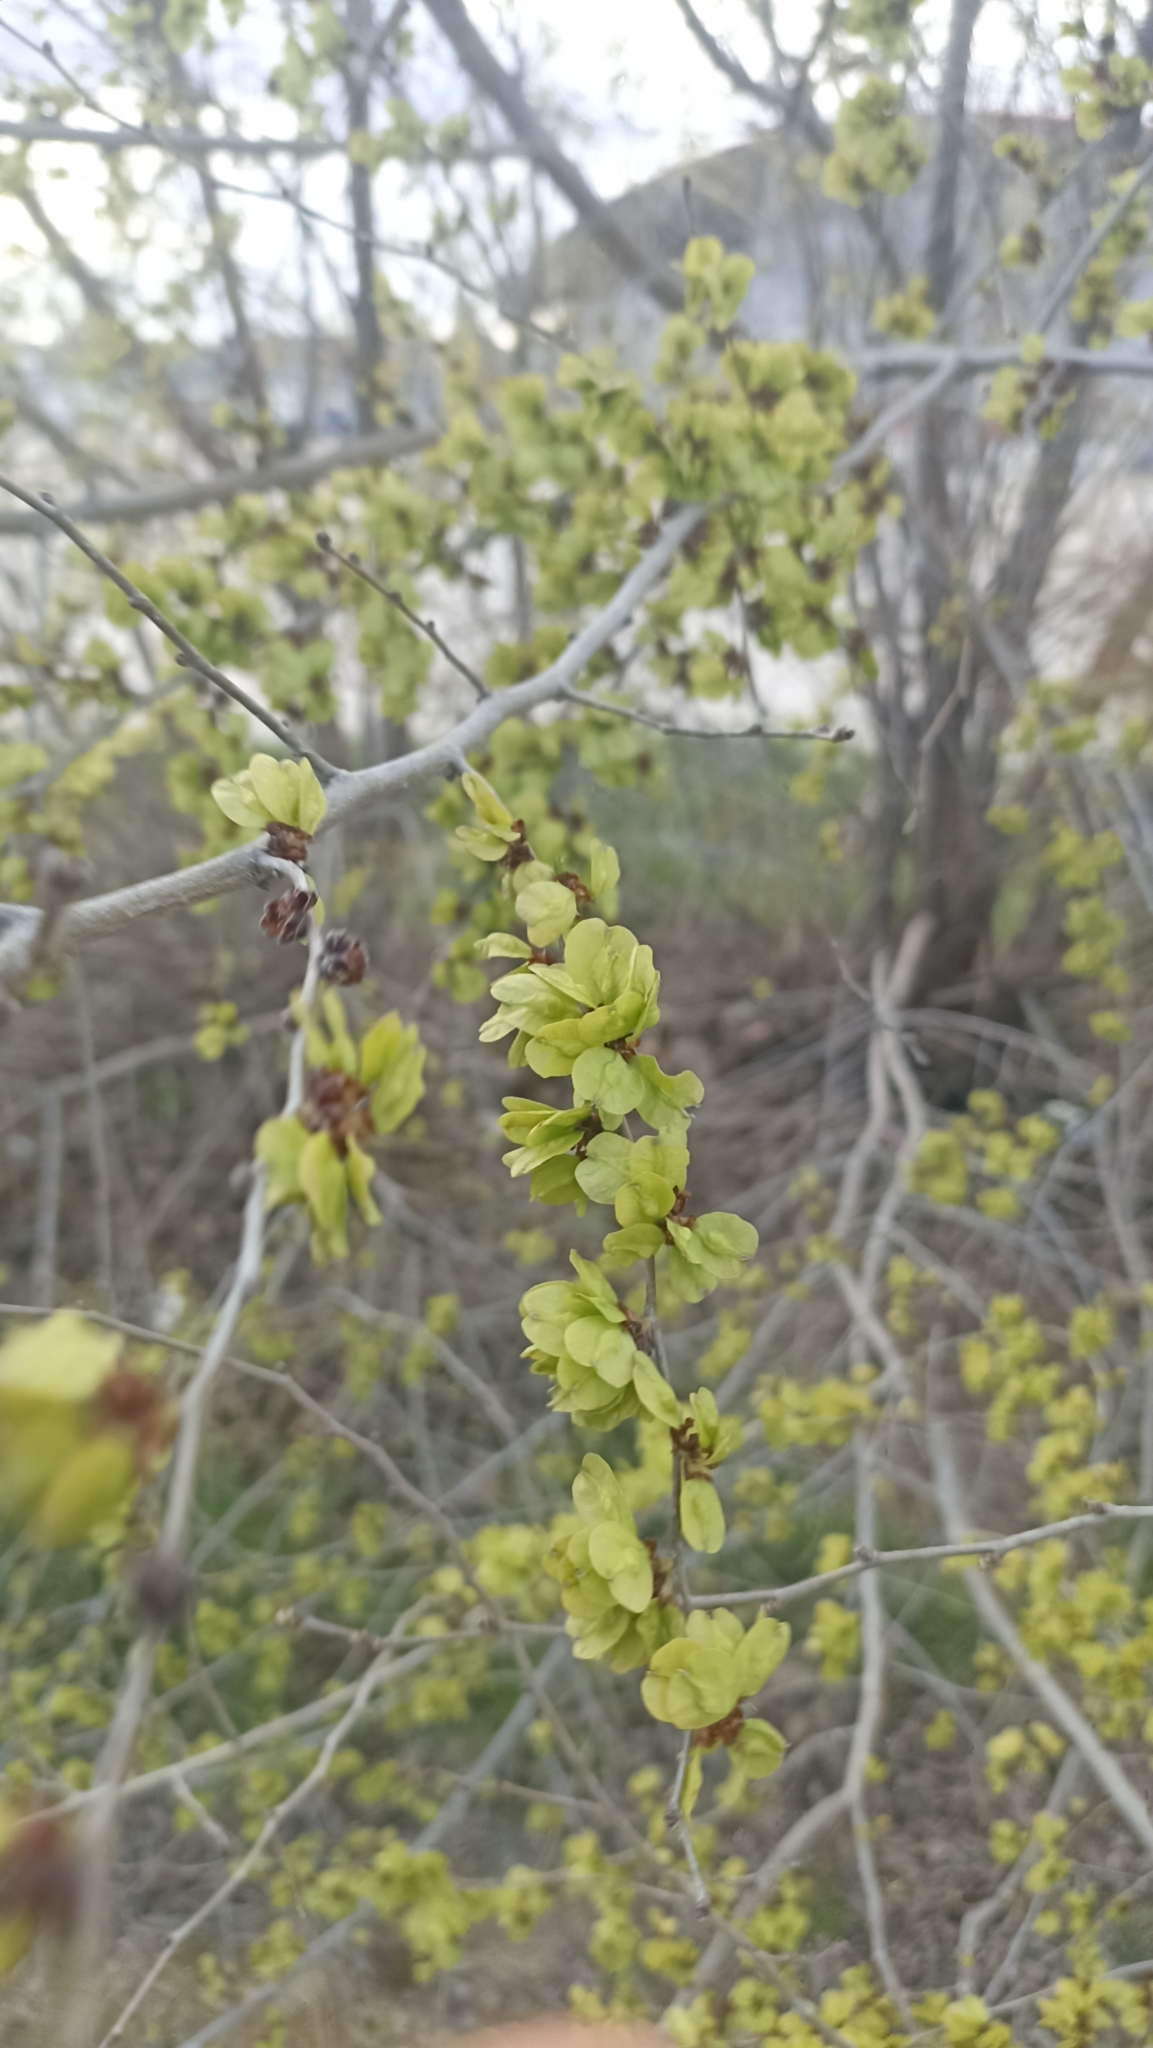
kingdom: Plantae
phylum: Tracheophyta
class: Magnoliopsida
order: Rosales
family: Ulmaceae
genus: Ulmus
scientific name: Ulmus pumila
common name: Siberian elm
